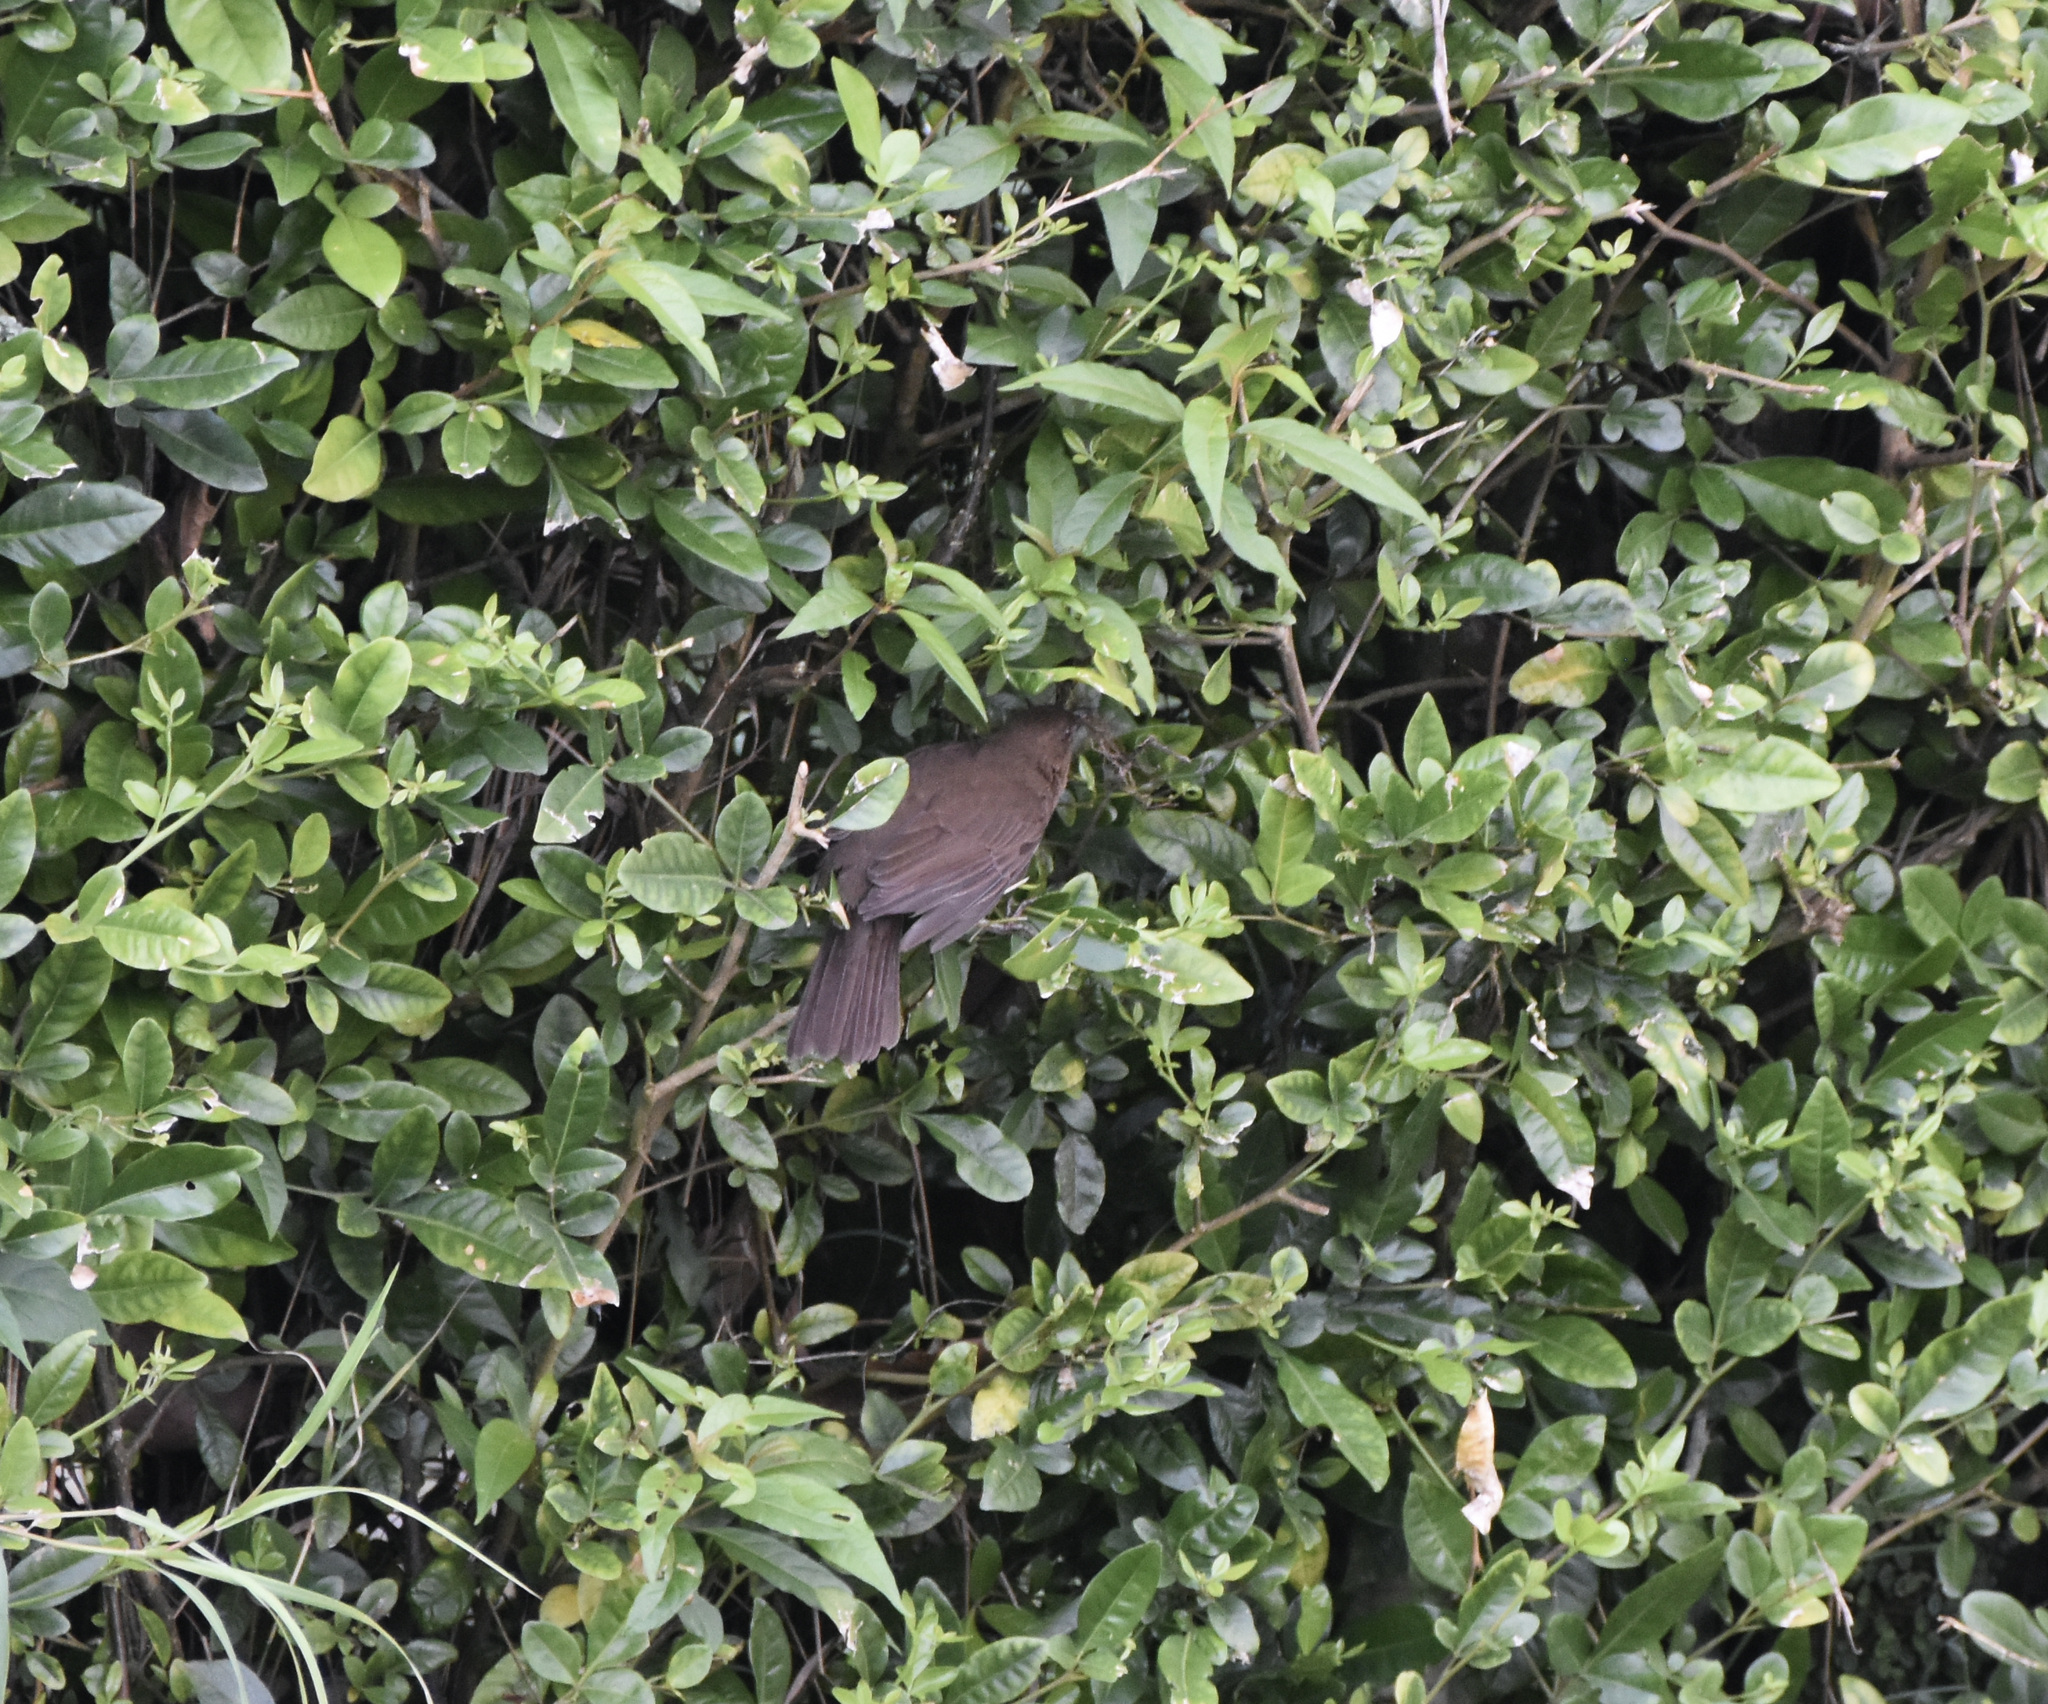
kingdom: Animalia
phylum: Chordata
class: Aves
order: Passeriformes
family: Turdidae
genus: Turdus
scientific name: Turdus ignobilis
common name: Black-billed thrush
